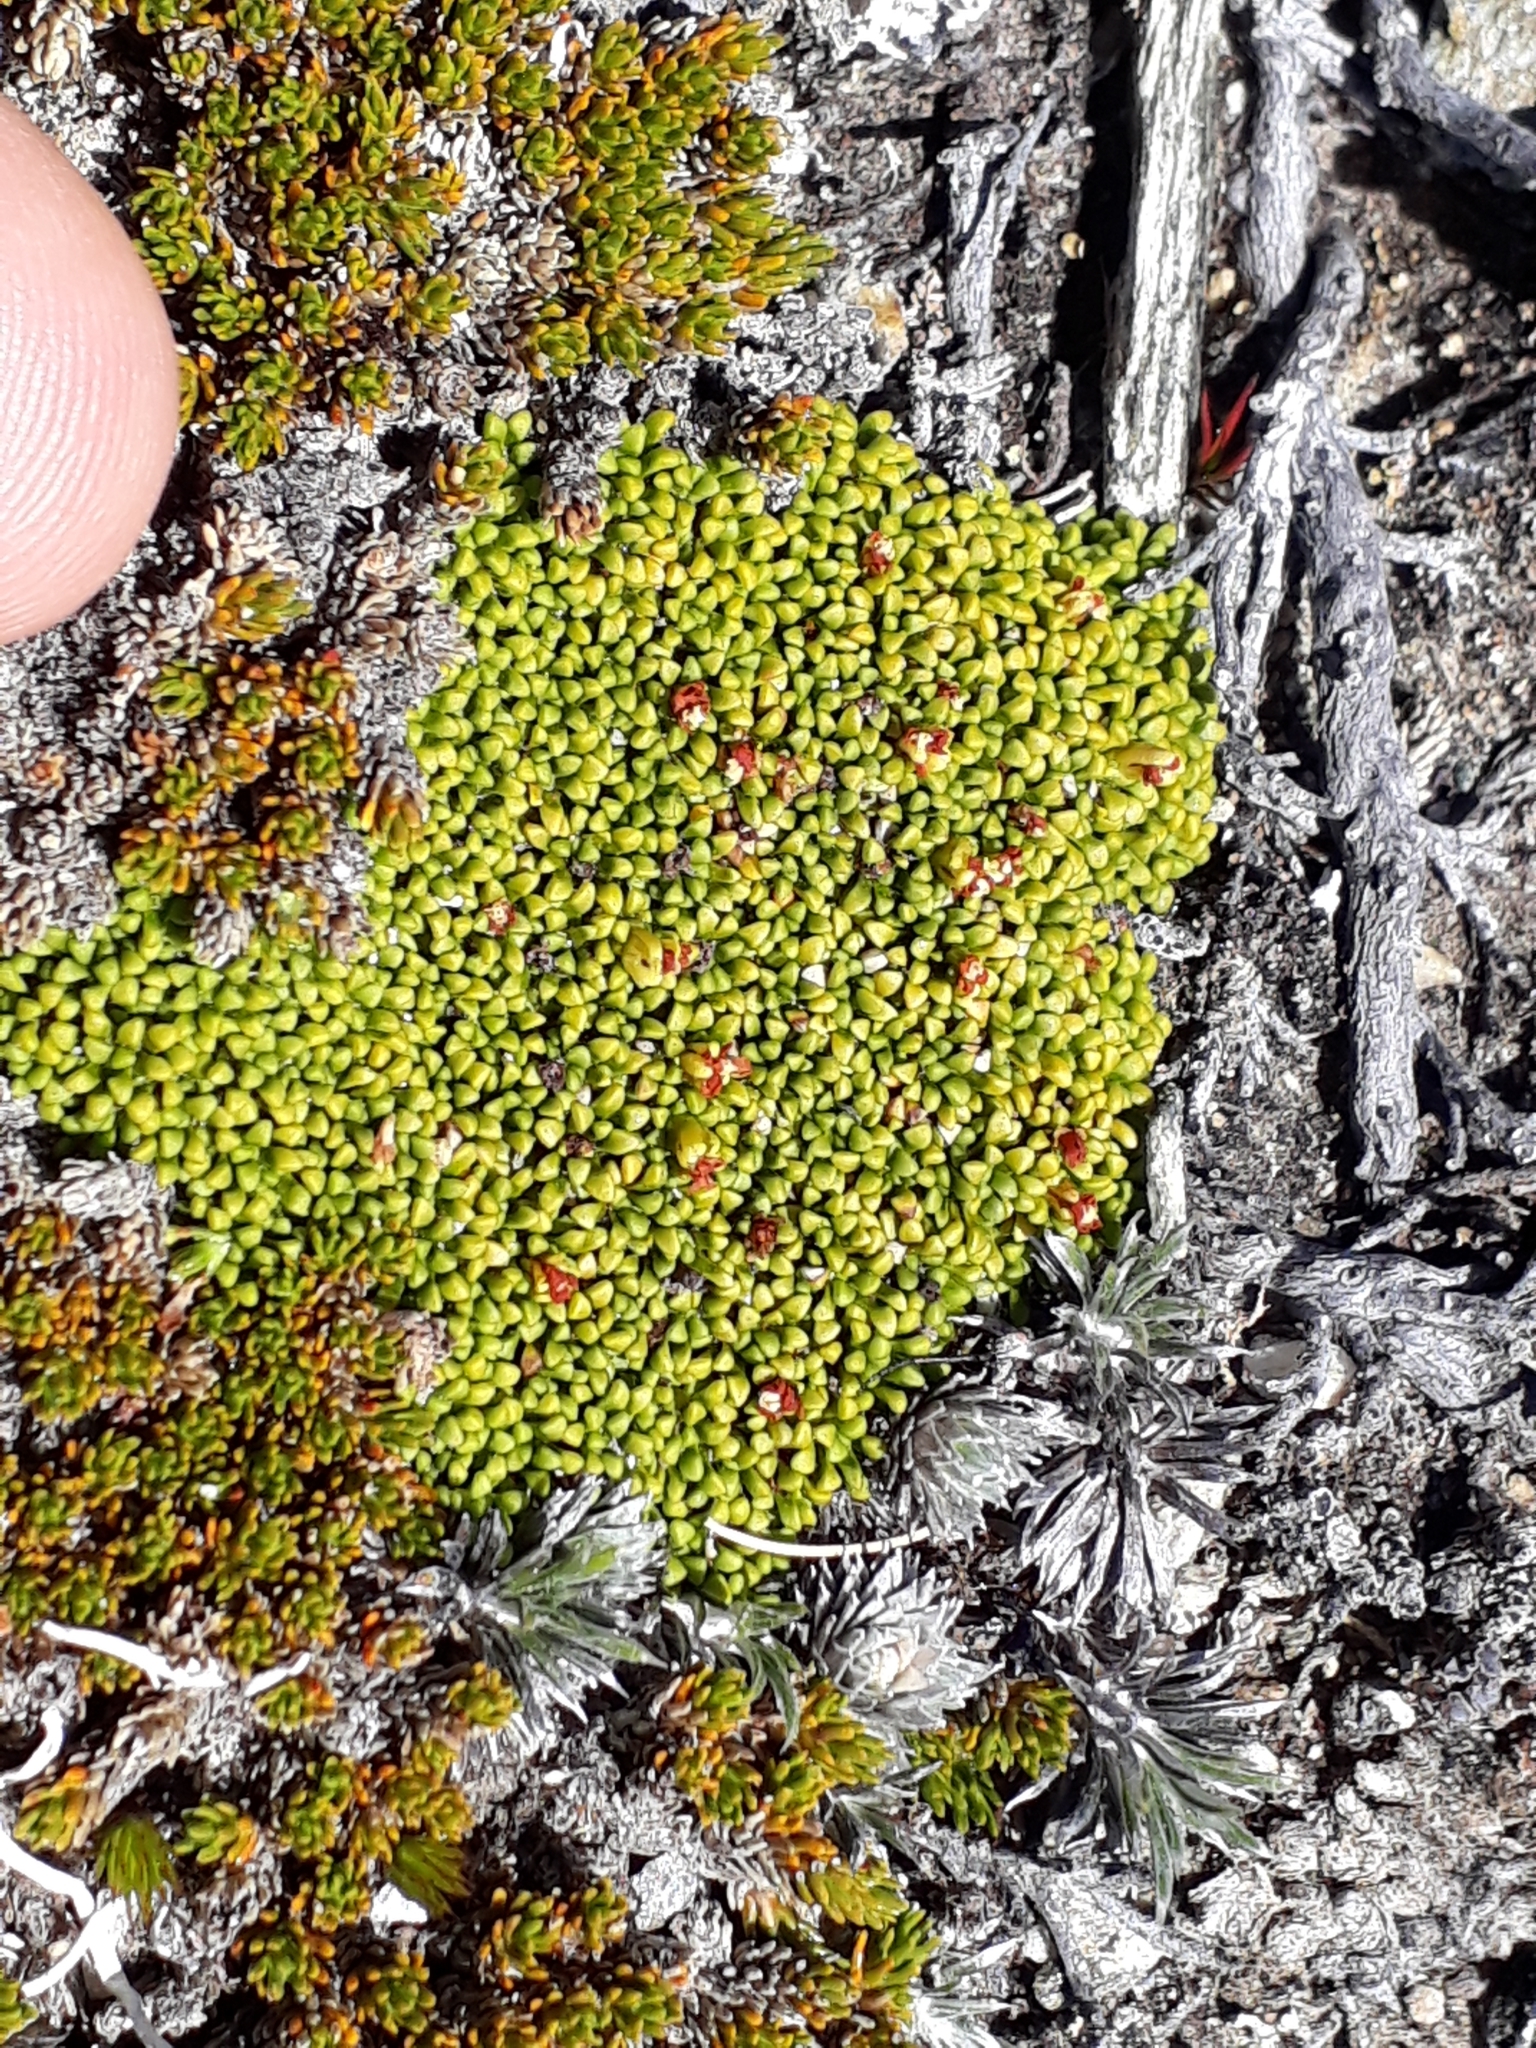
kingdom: Plantae
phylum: Tracheophyta
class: Magnoliopsida
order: Asterales
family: Stylidiaceae
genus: Phyllachne
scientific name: Phyllachne rubra
